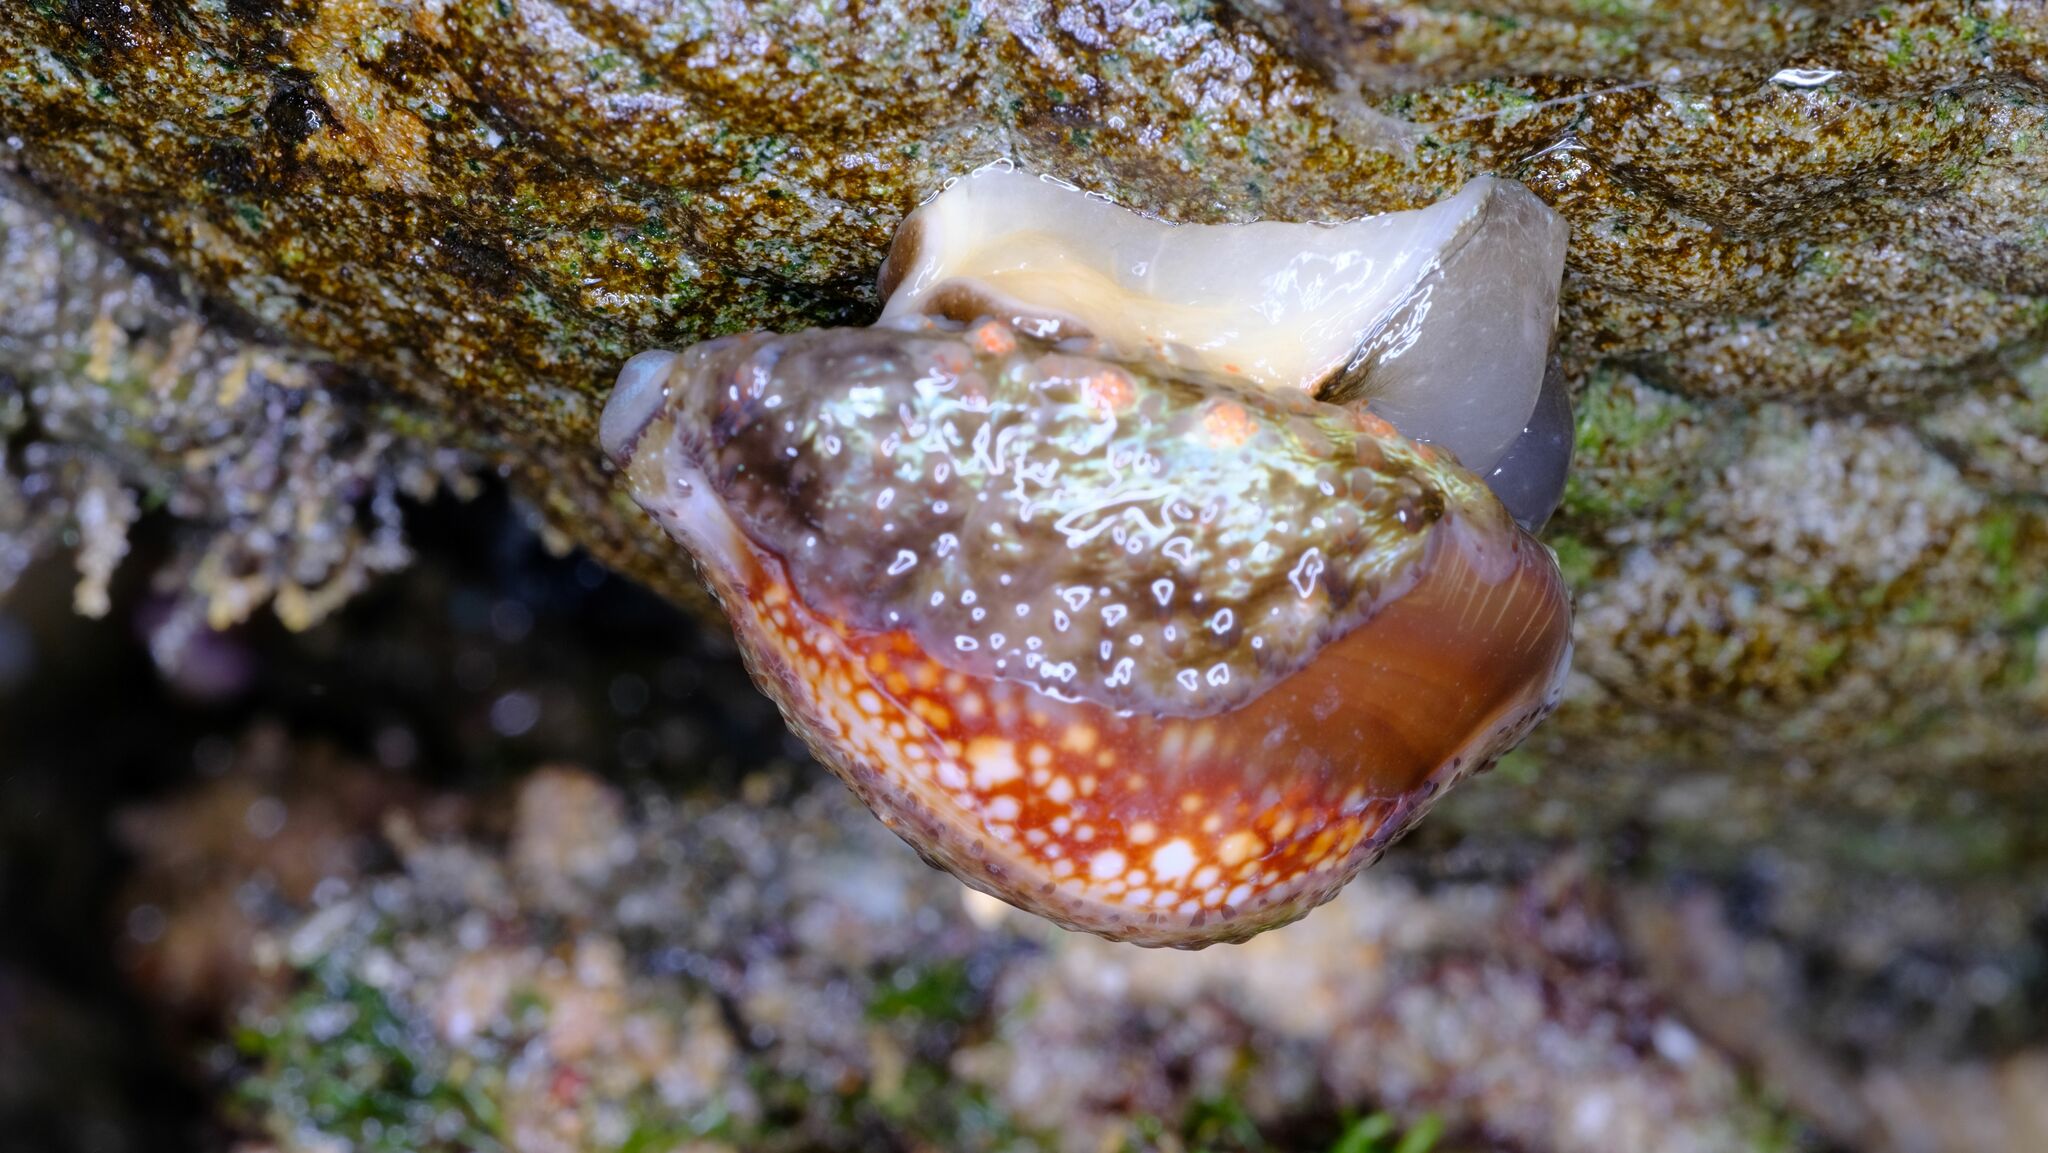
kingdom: Animalia
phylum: Mollusca
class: Gastropoda
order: Littorinimorpha
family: Cypraeidae
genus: Monetaria
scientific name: Monetaria caputserpentis
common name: Serpent's head cowrie
